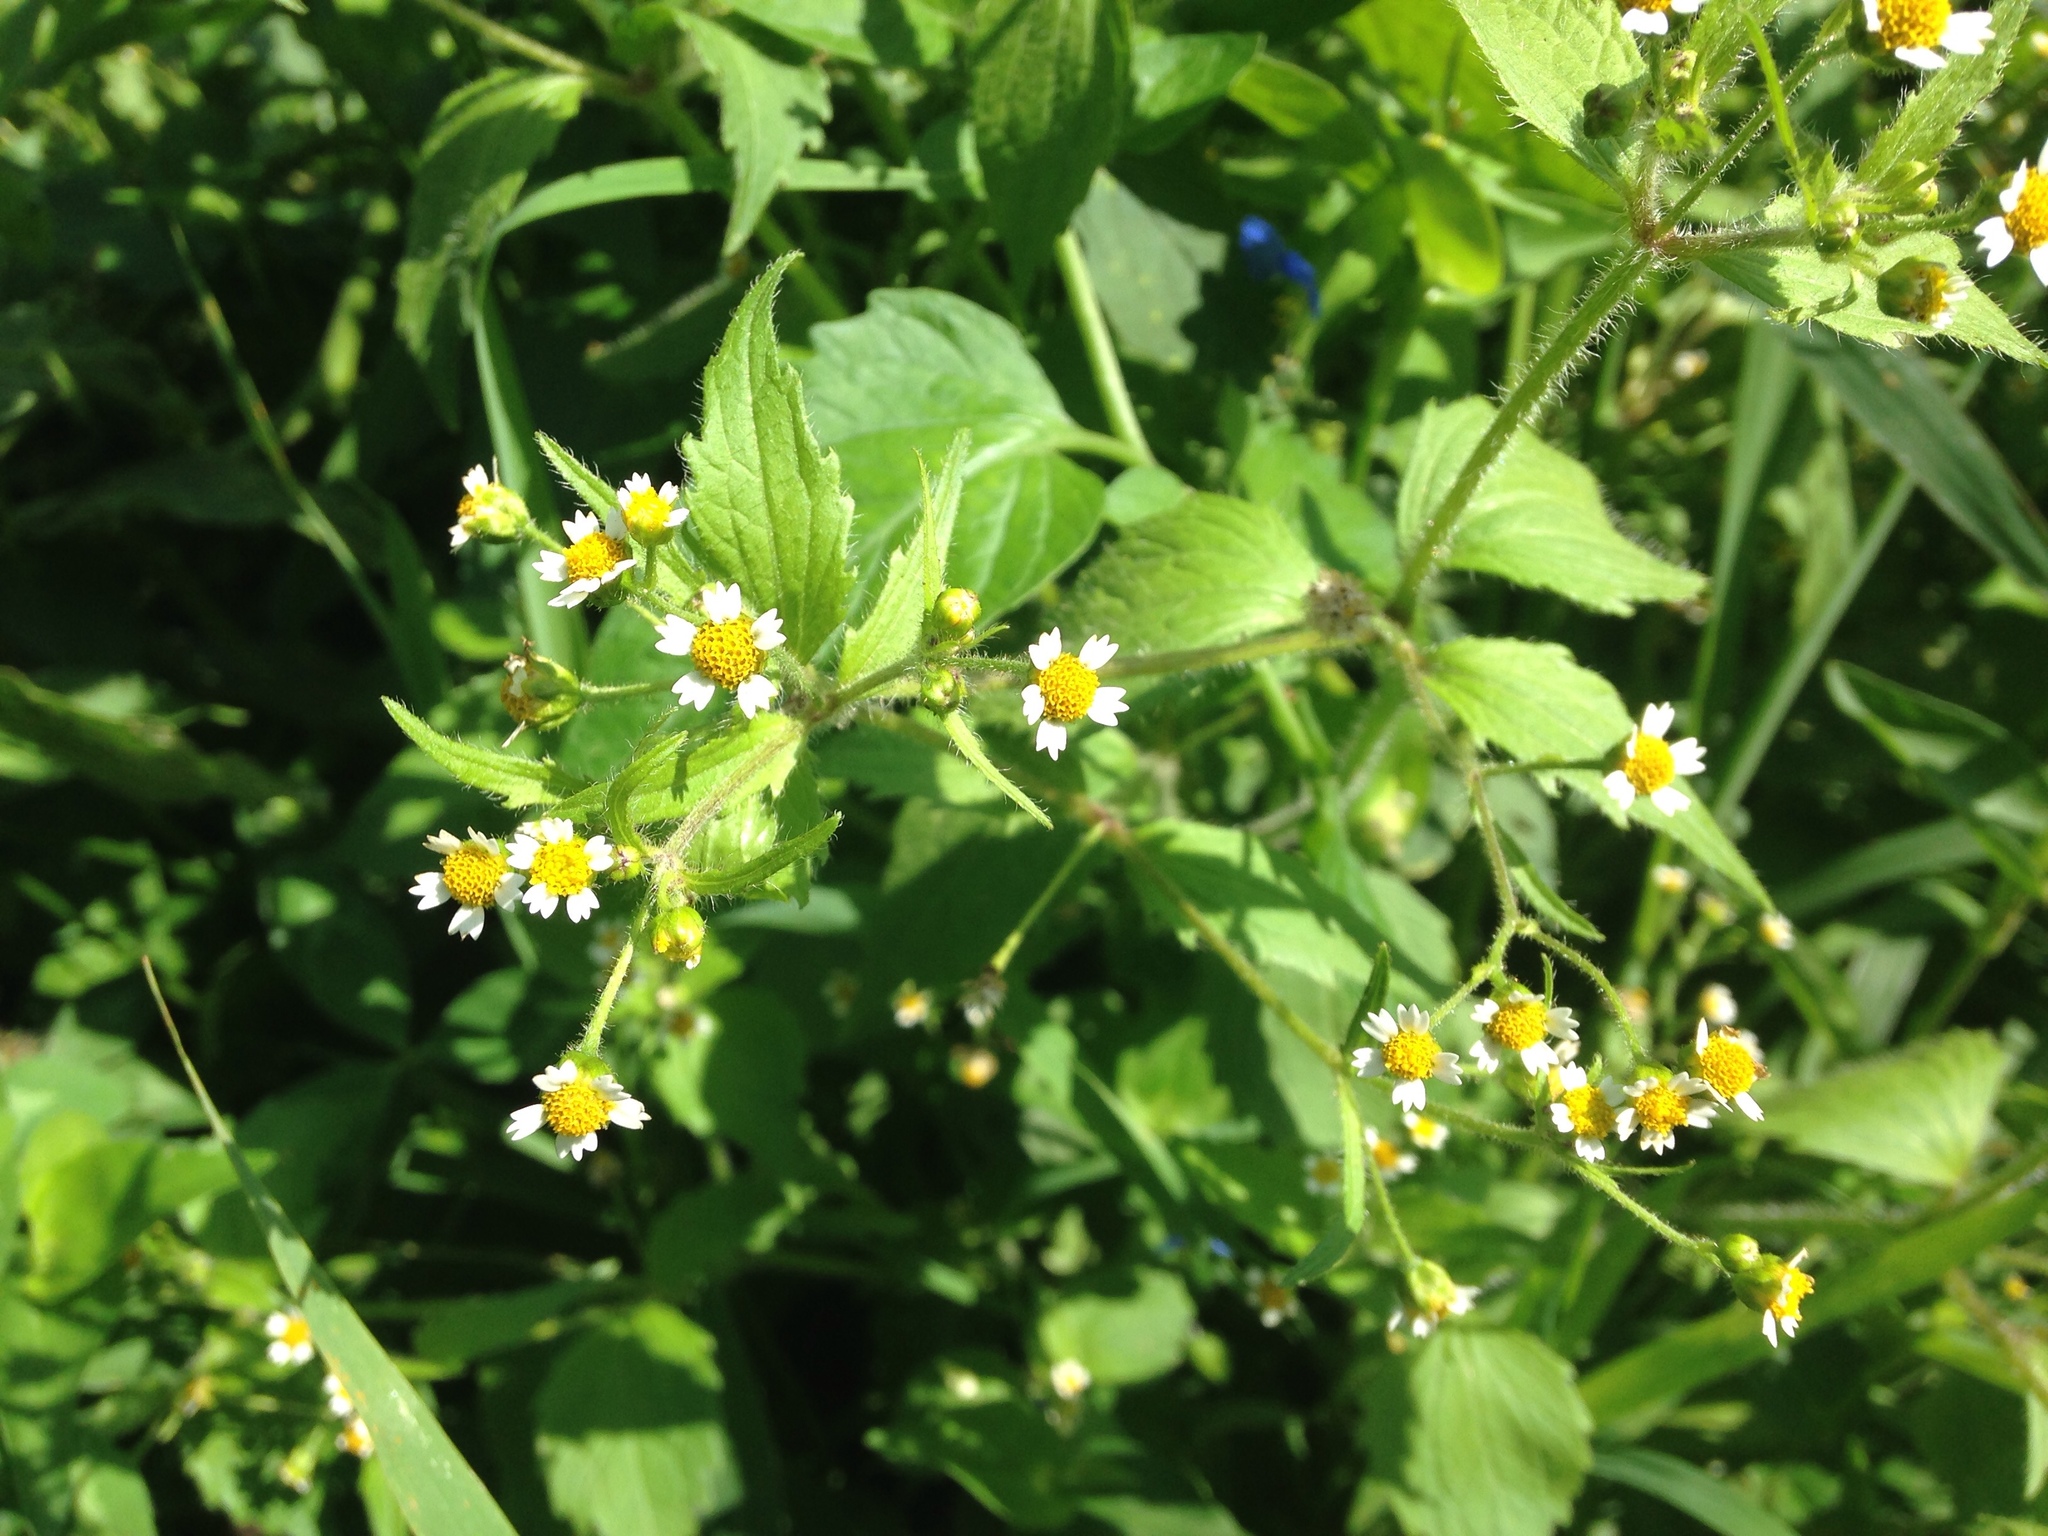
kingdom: Plantae
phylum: Tracheophyta
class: Magnoliopsida
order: Asterales
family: Asteraceae
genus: Galinsoga
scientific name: Galinsoga quadriradiata
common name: Shaggy soldier
